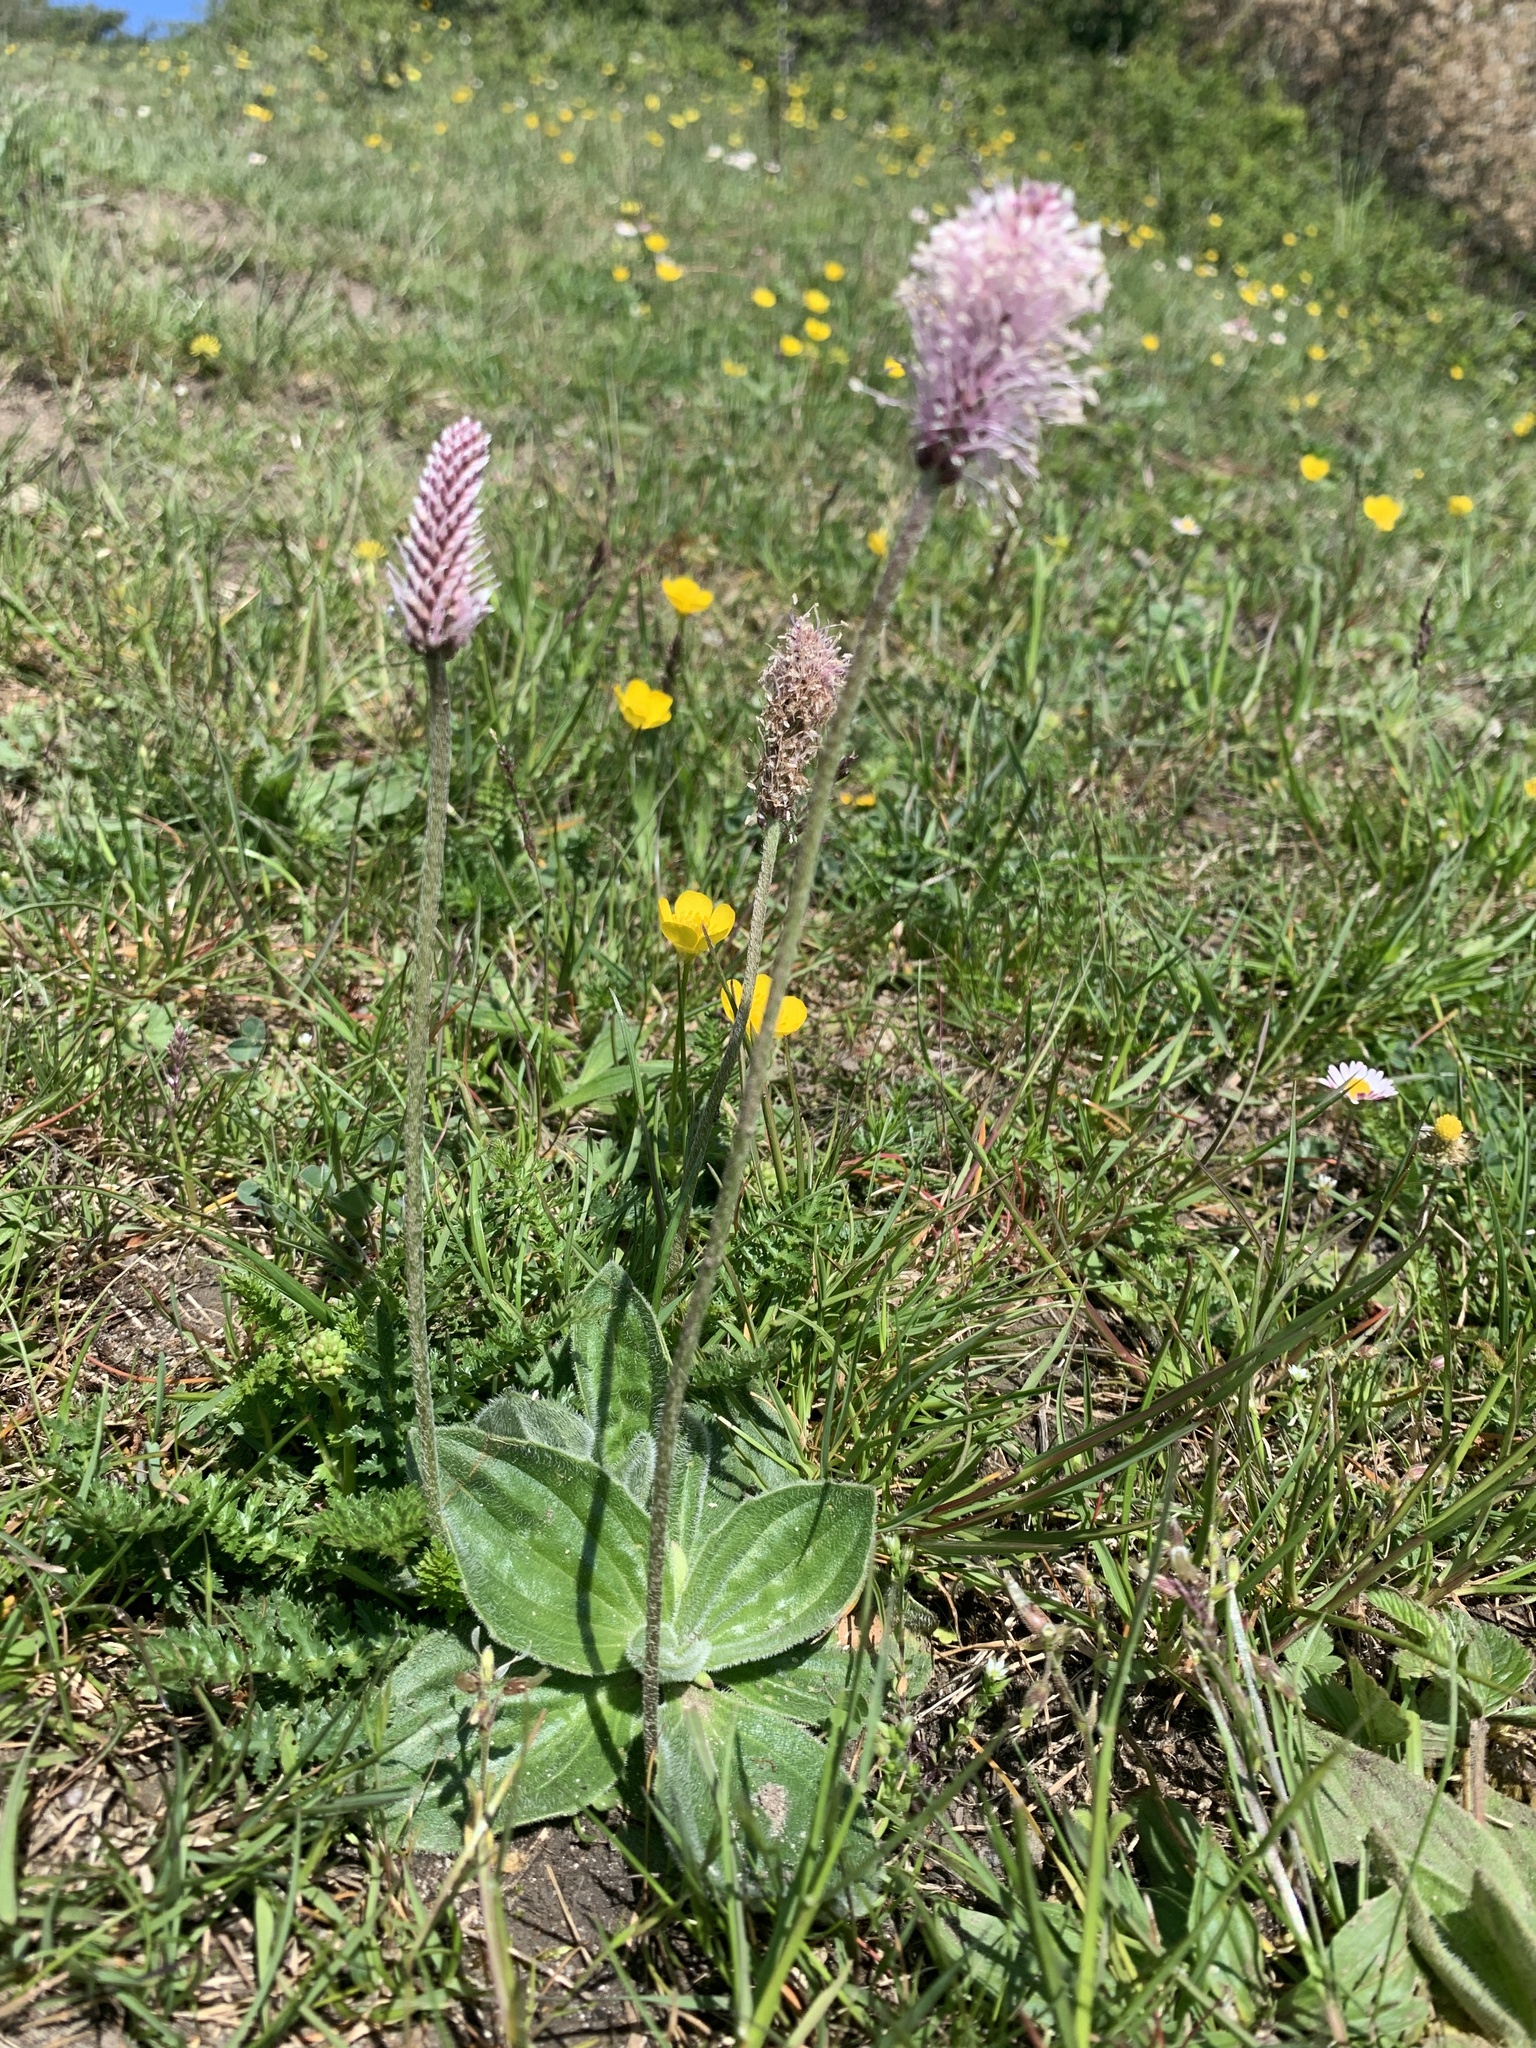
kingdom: Plantae
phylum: Tracheophyta
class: Magnoliopsida
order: Lamiales
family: Plantaginaceae
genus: Plantago
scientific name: Plantago media
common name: Hoary plantain
